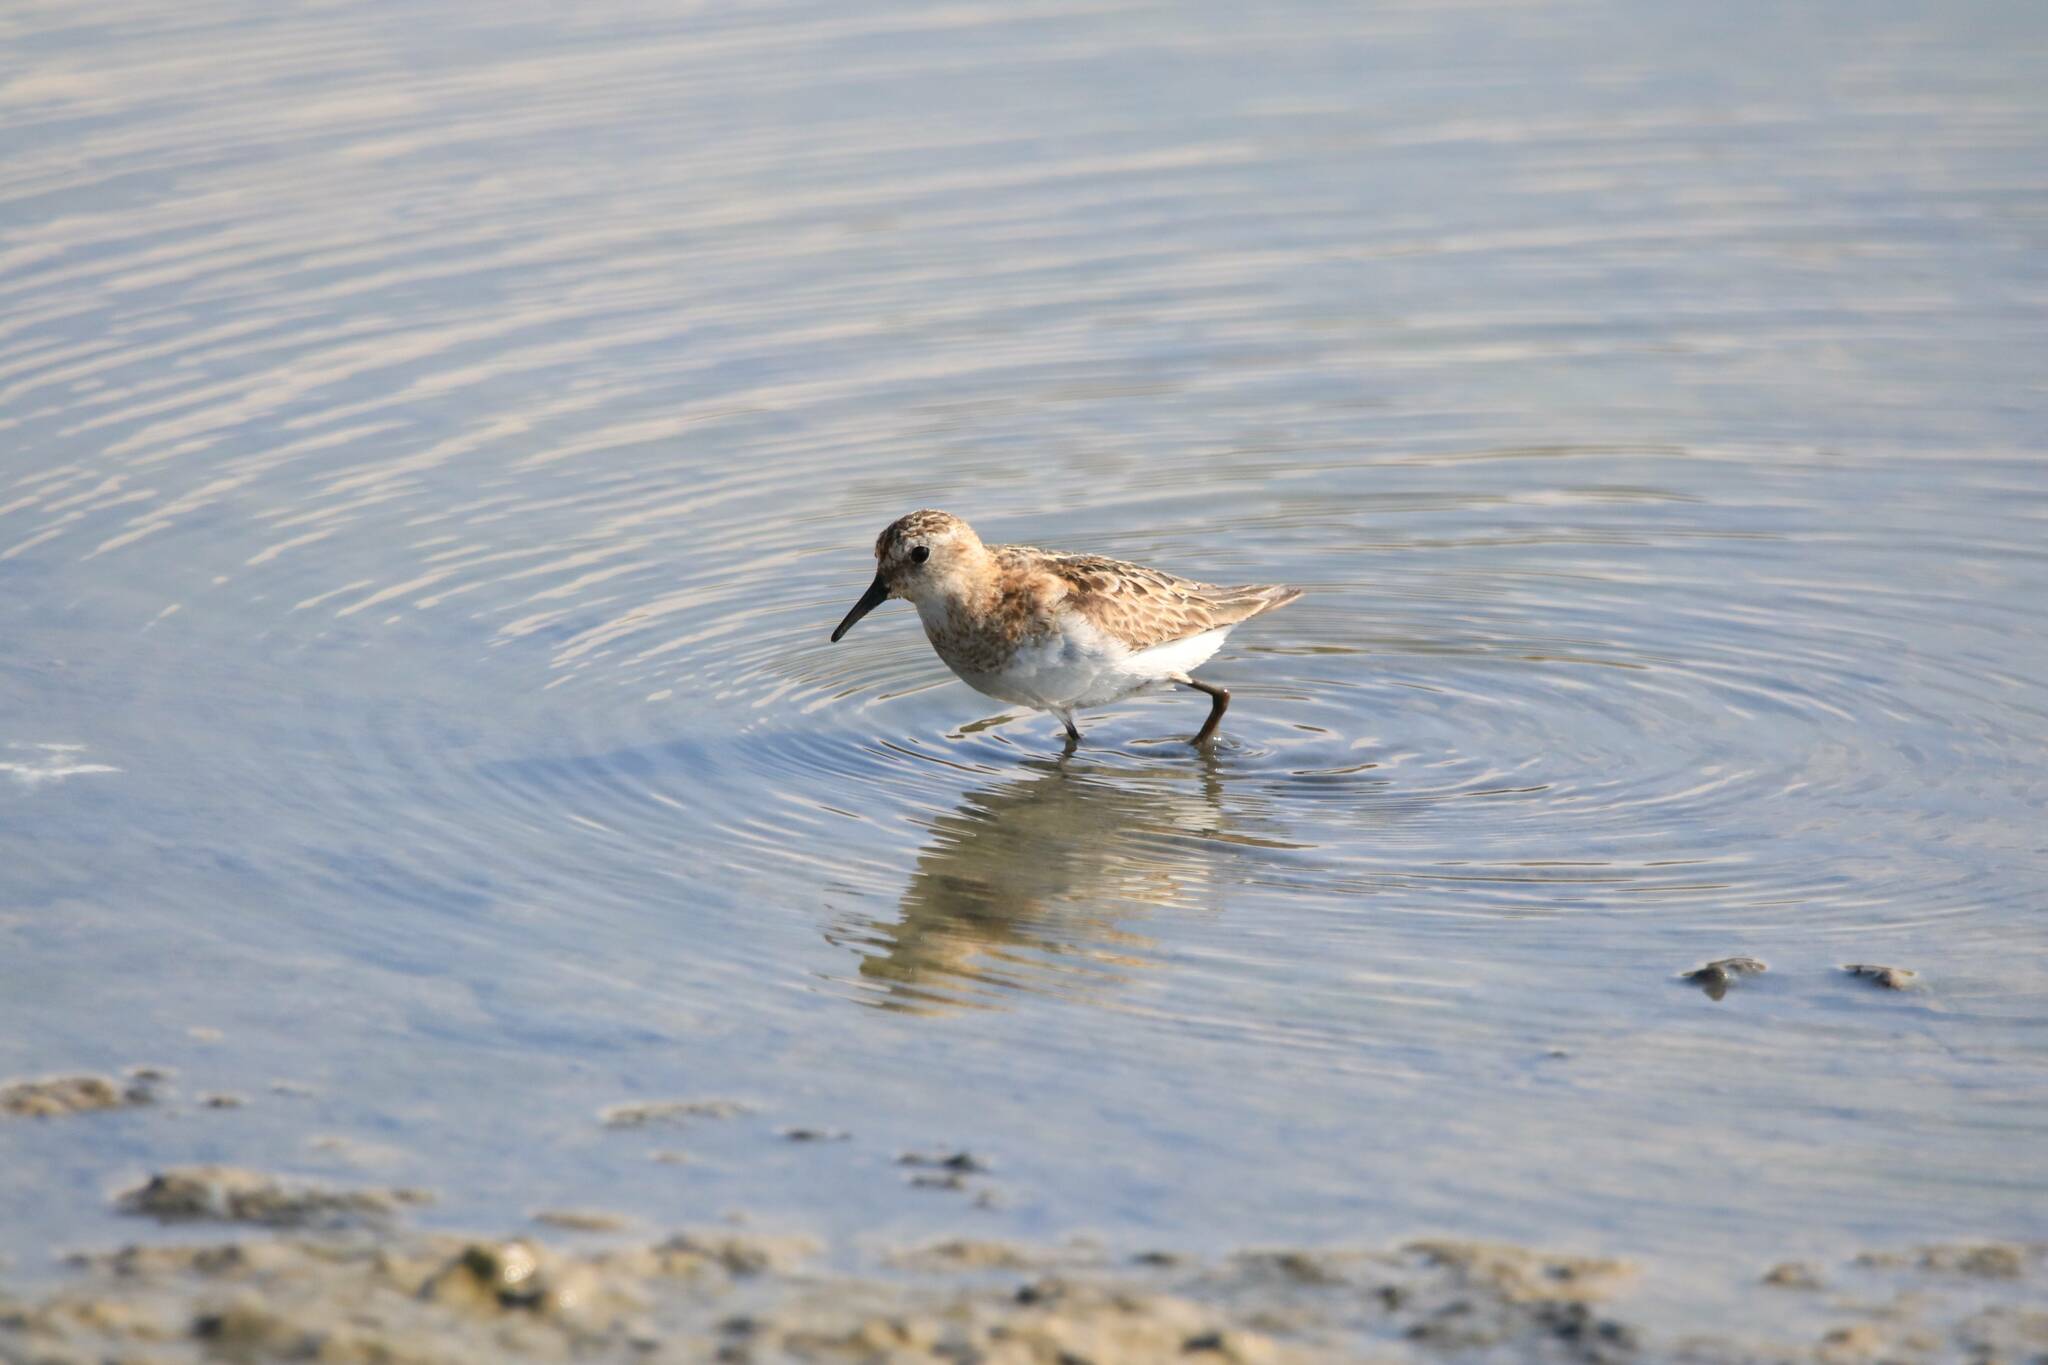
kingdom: Animalia
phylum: Chordata
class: Aves
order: Charadriiformes
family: Scolopacidae
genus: Calidris
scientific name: Calidris minuta
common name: Little stint
